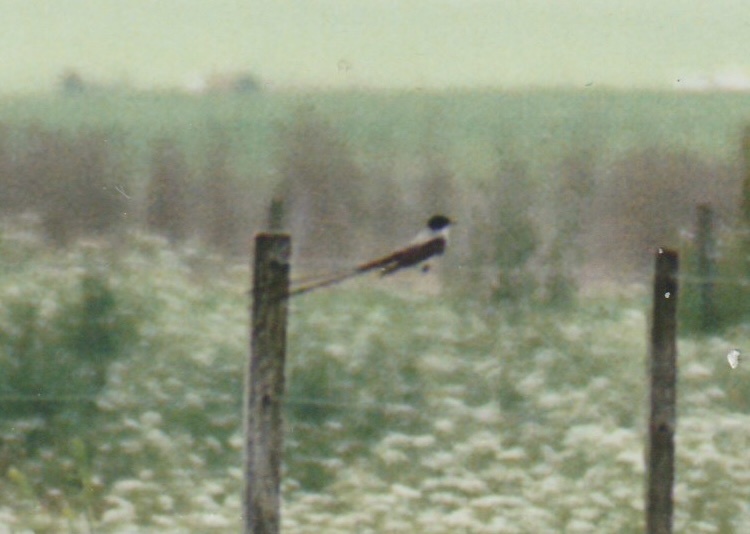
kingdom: Animalia
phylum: Chordata
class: Aves
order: Passeriformes
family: Tyrannidae
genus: Tyrannus
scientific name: Tyrannus savana
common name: Fork-tailed flycatcher
